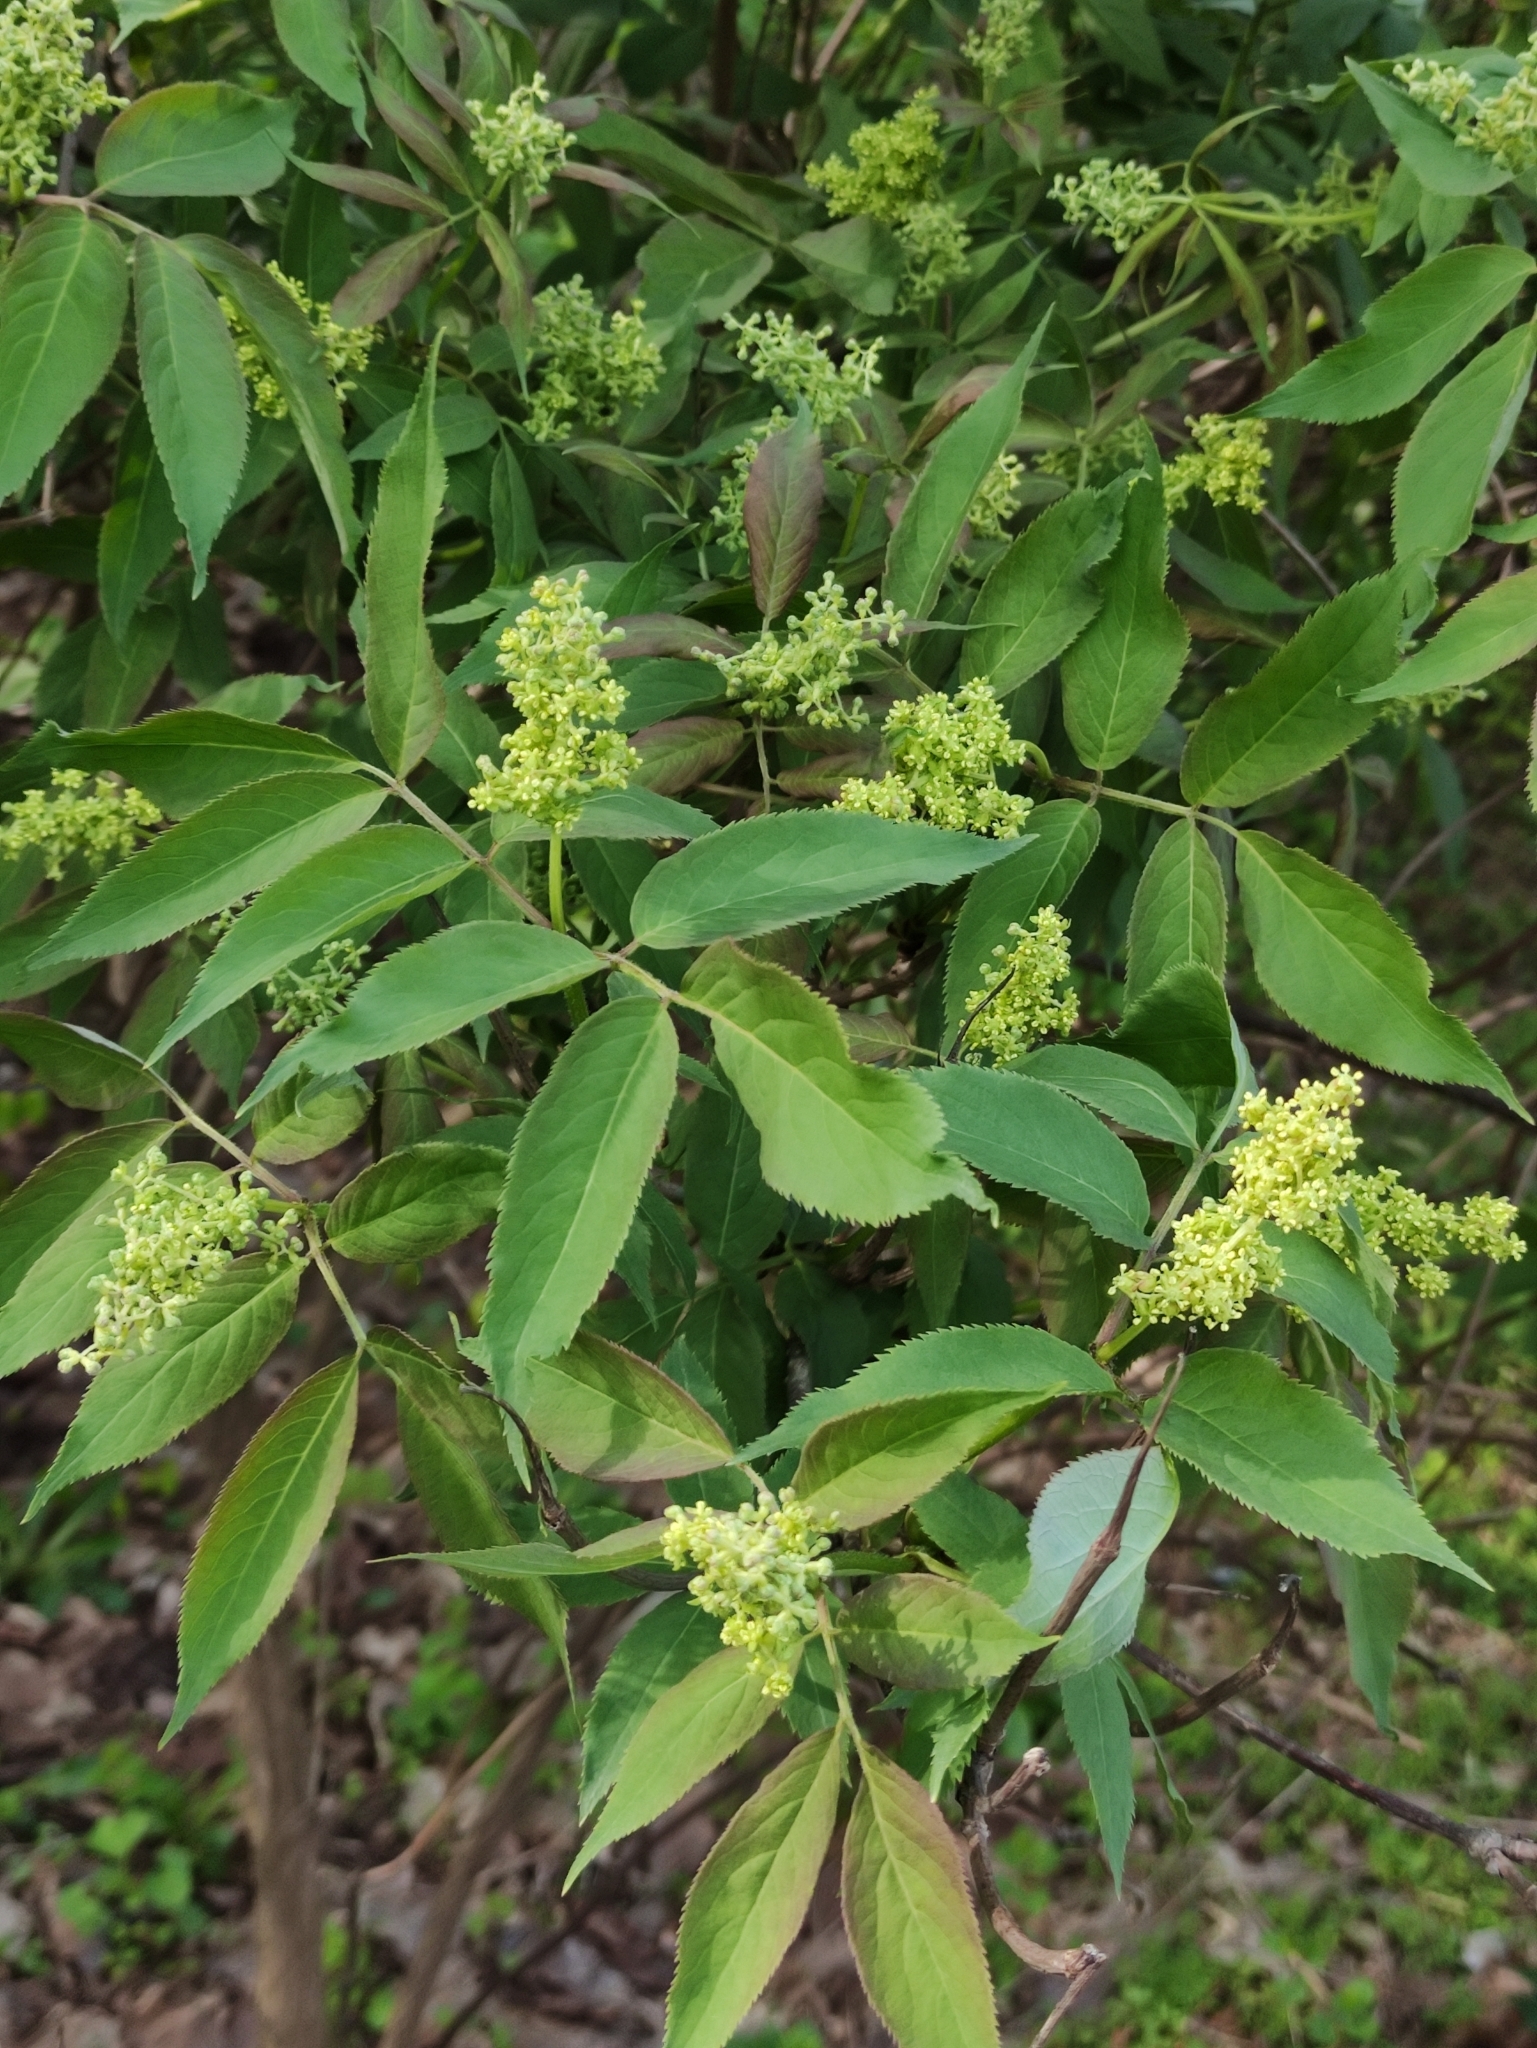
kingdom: Plantae
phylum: Tracheophyta
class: Magnoliopsida
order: Dipsacales
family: Viburnaceae
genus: Sambucus
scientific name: Sambucus racemosa
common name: Red-berried elder
